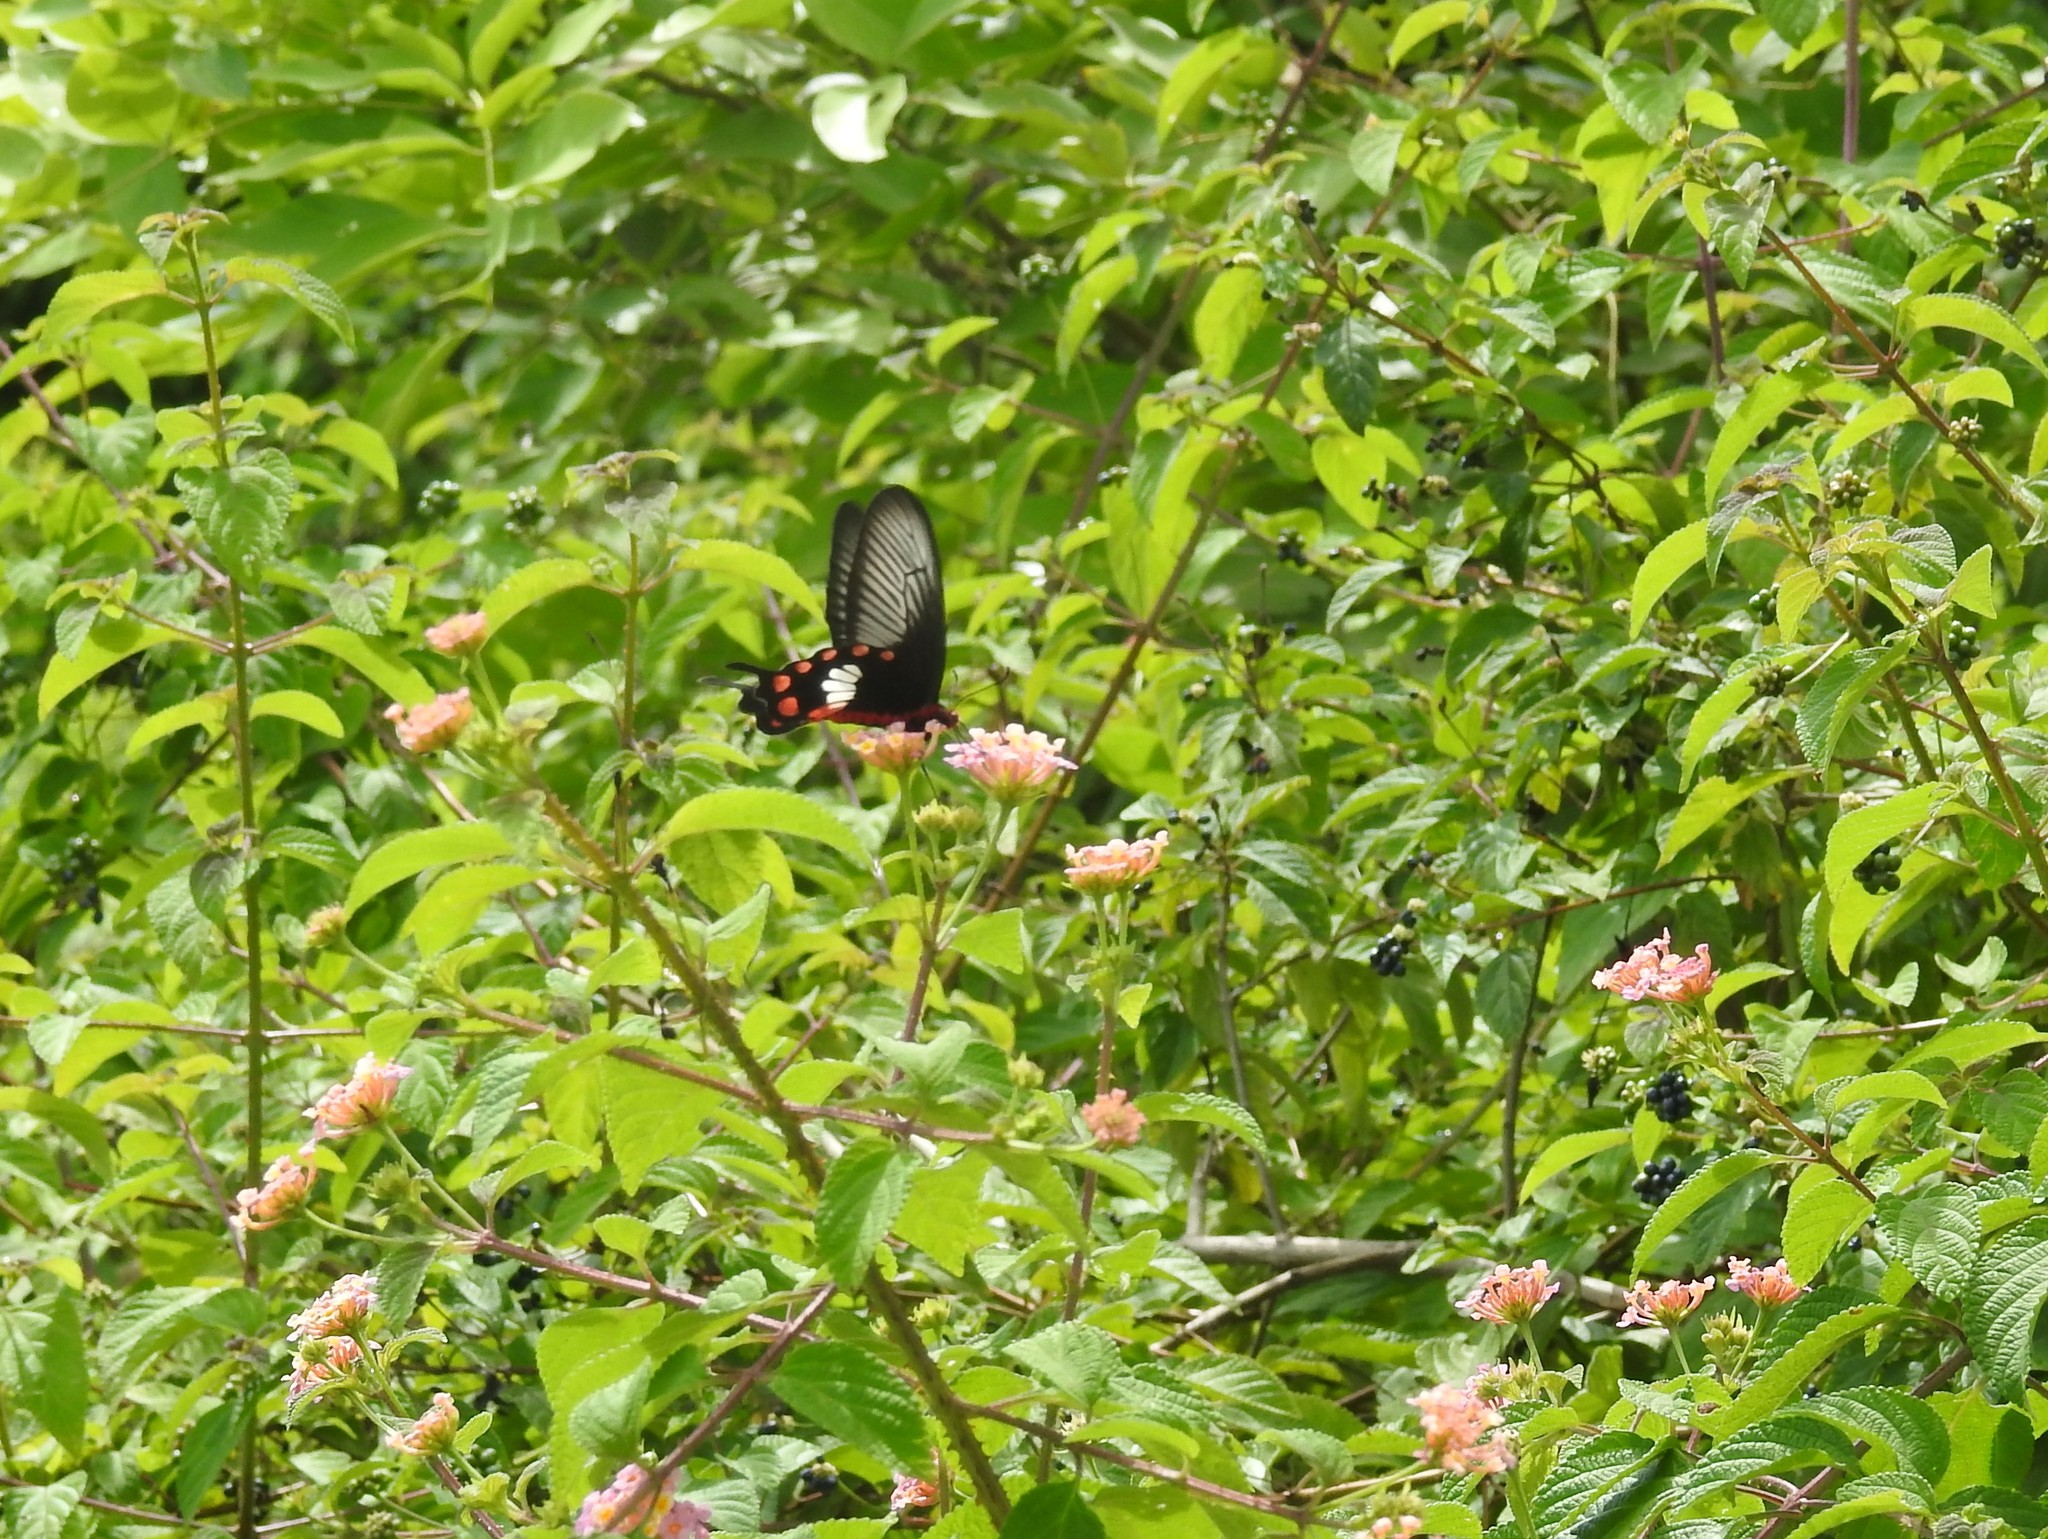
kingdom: Animalia
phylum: Arthropoda
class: Insecta
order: Lepidoptera
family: Papilionidae
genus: Pachliopta
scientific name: Pachliopta aristolochiae
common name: Common rose
